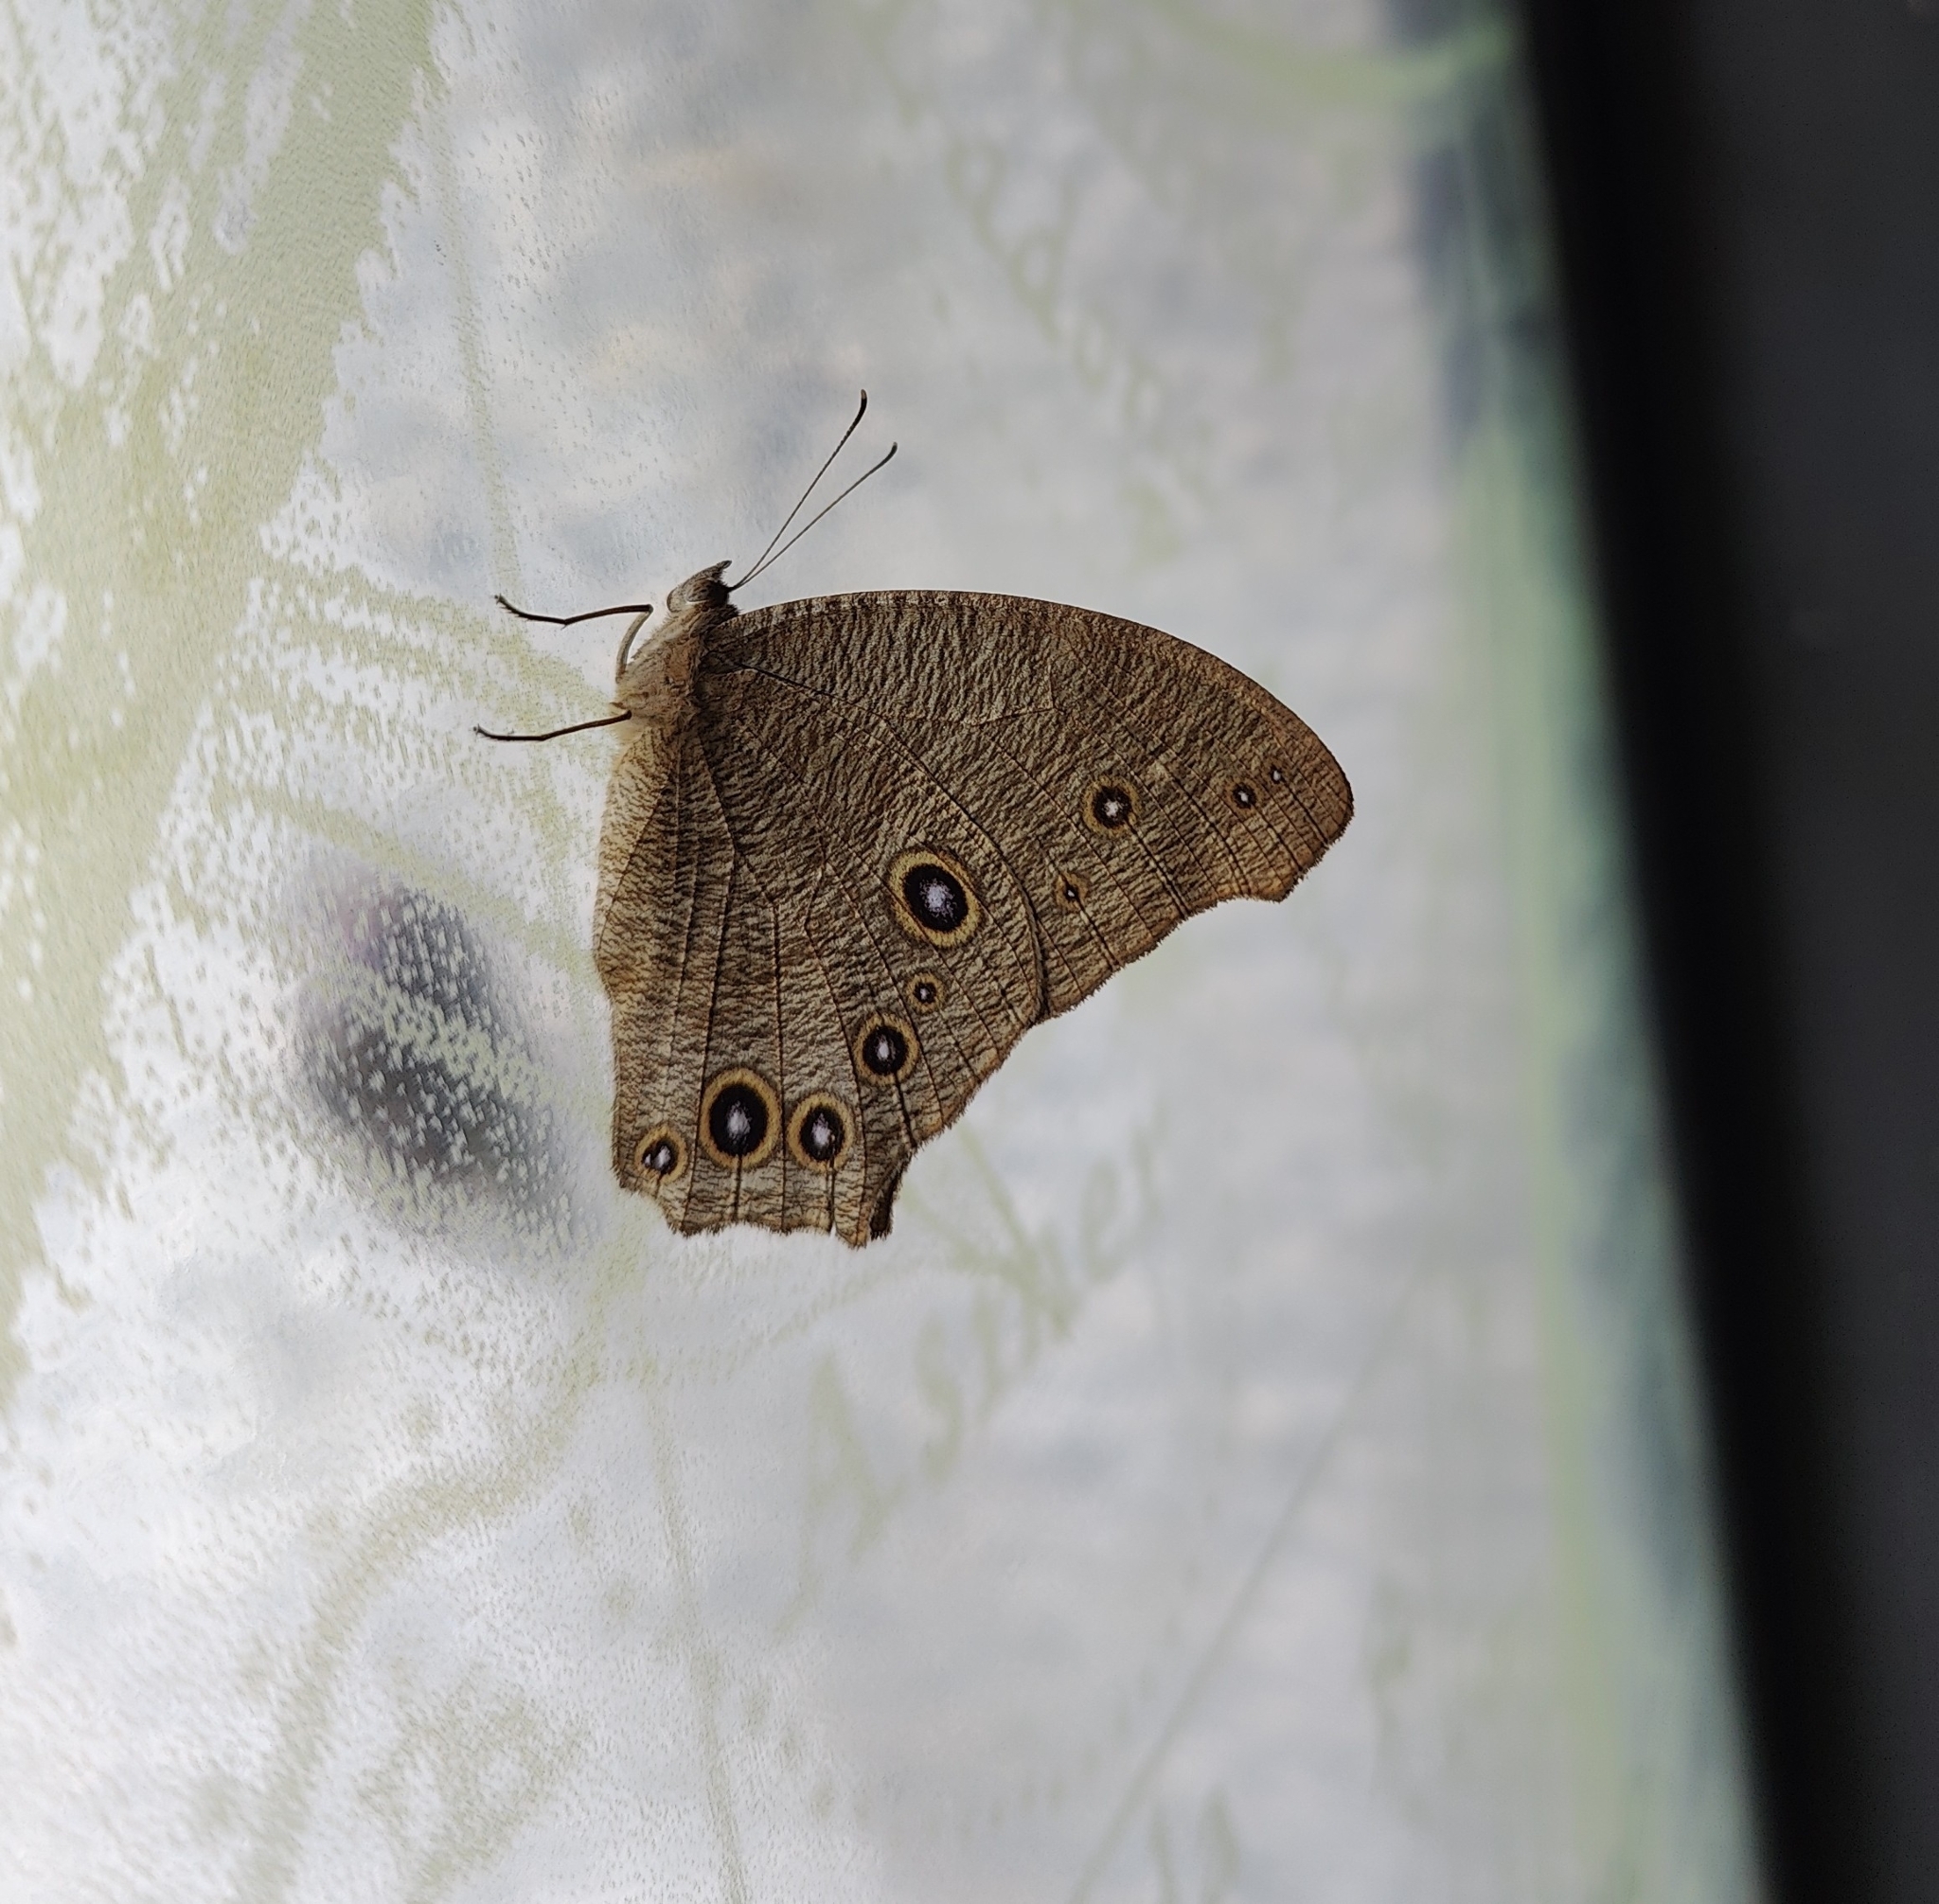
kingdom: Animalia
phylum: Arthropoda
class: Insecta
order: Lepidoptera
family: Nymphalidae
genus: Melanitis
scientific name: Melanitis leda
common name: Twilight brown
